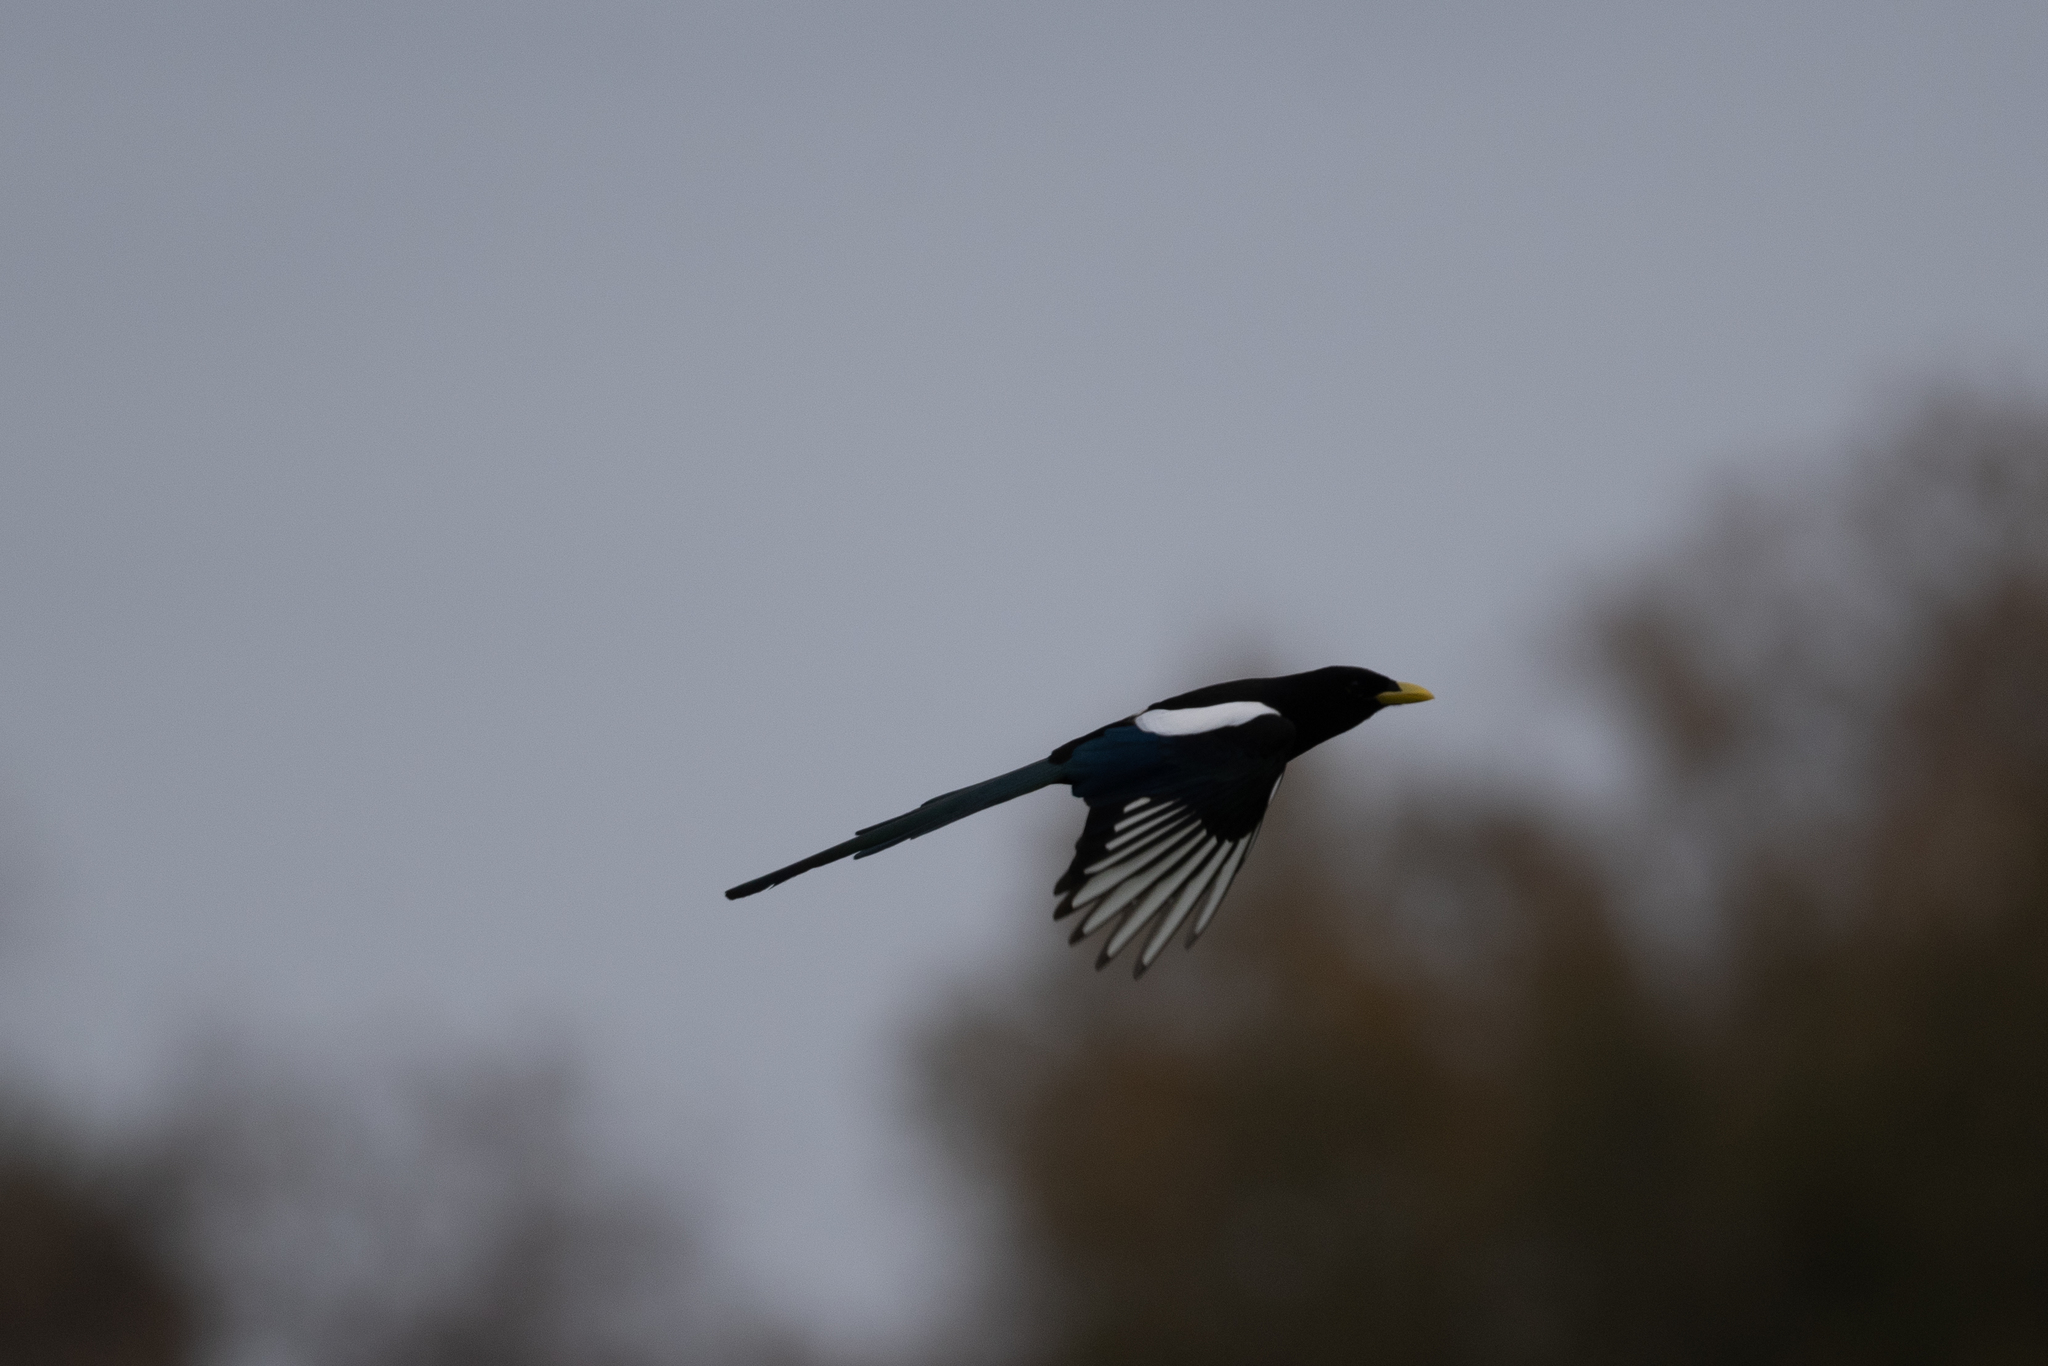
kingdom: Animalia
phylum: Chordata
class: Aves
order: Passeriformes
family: Corvidae
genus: Pica
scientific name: Pica nuttalli
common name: Yellow-billed magpie
